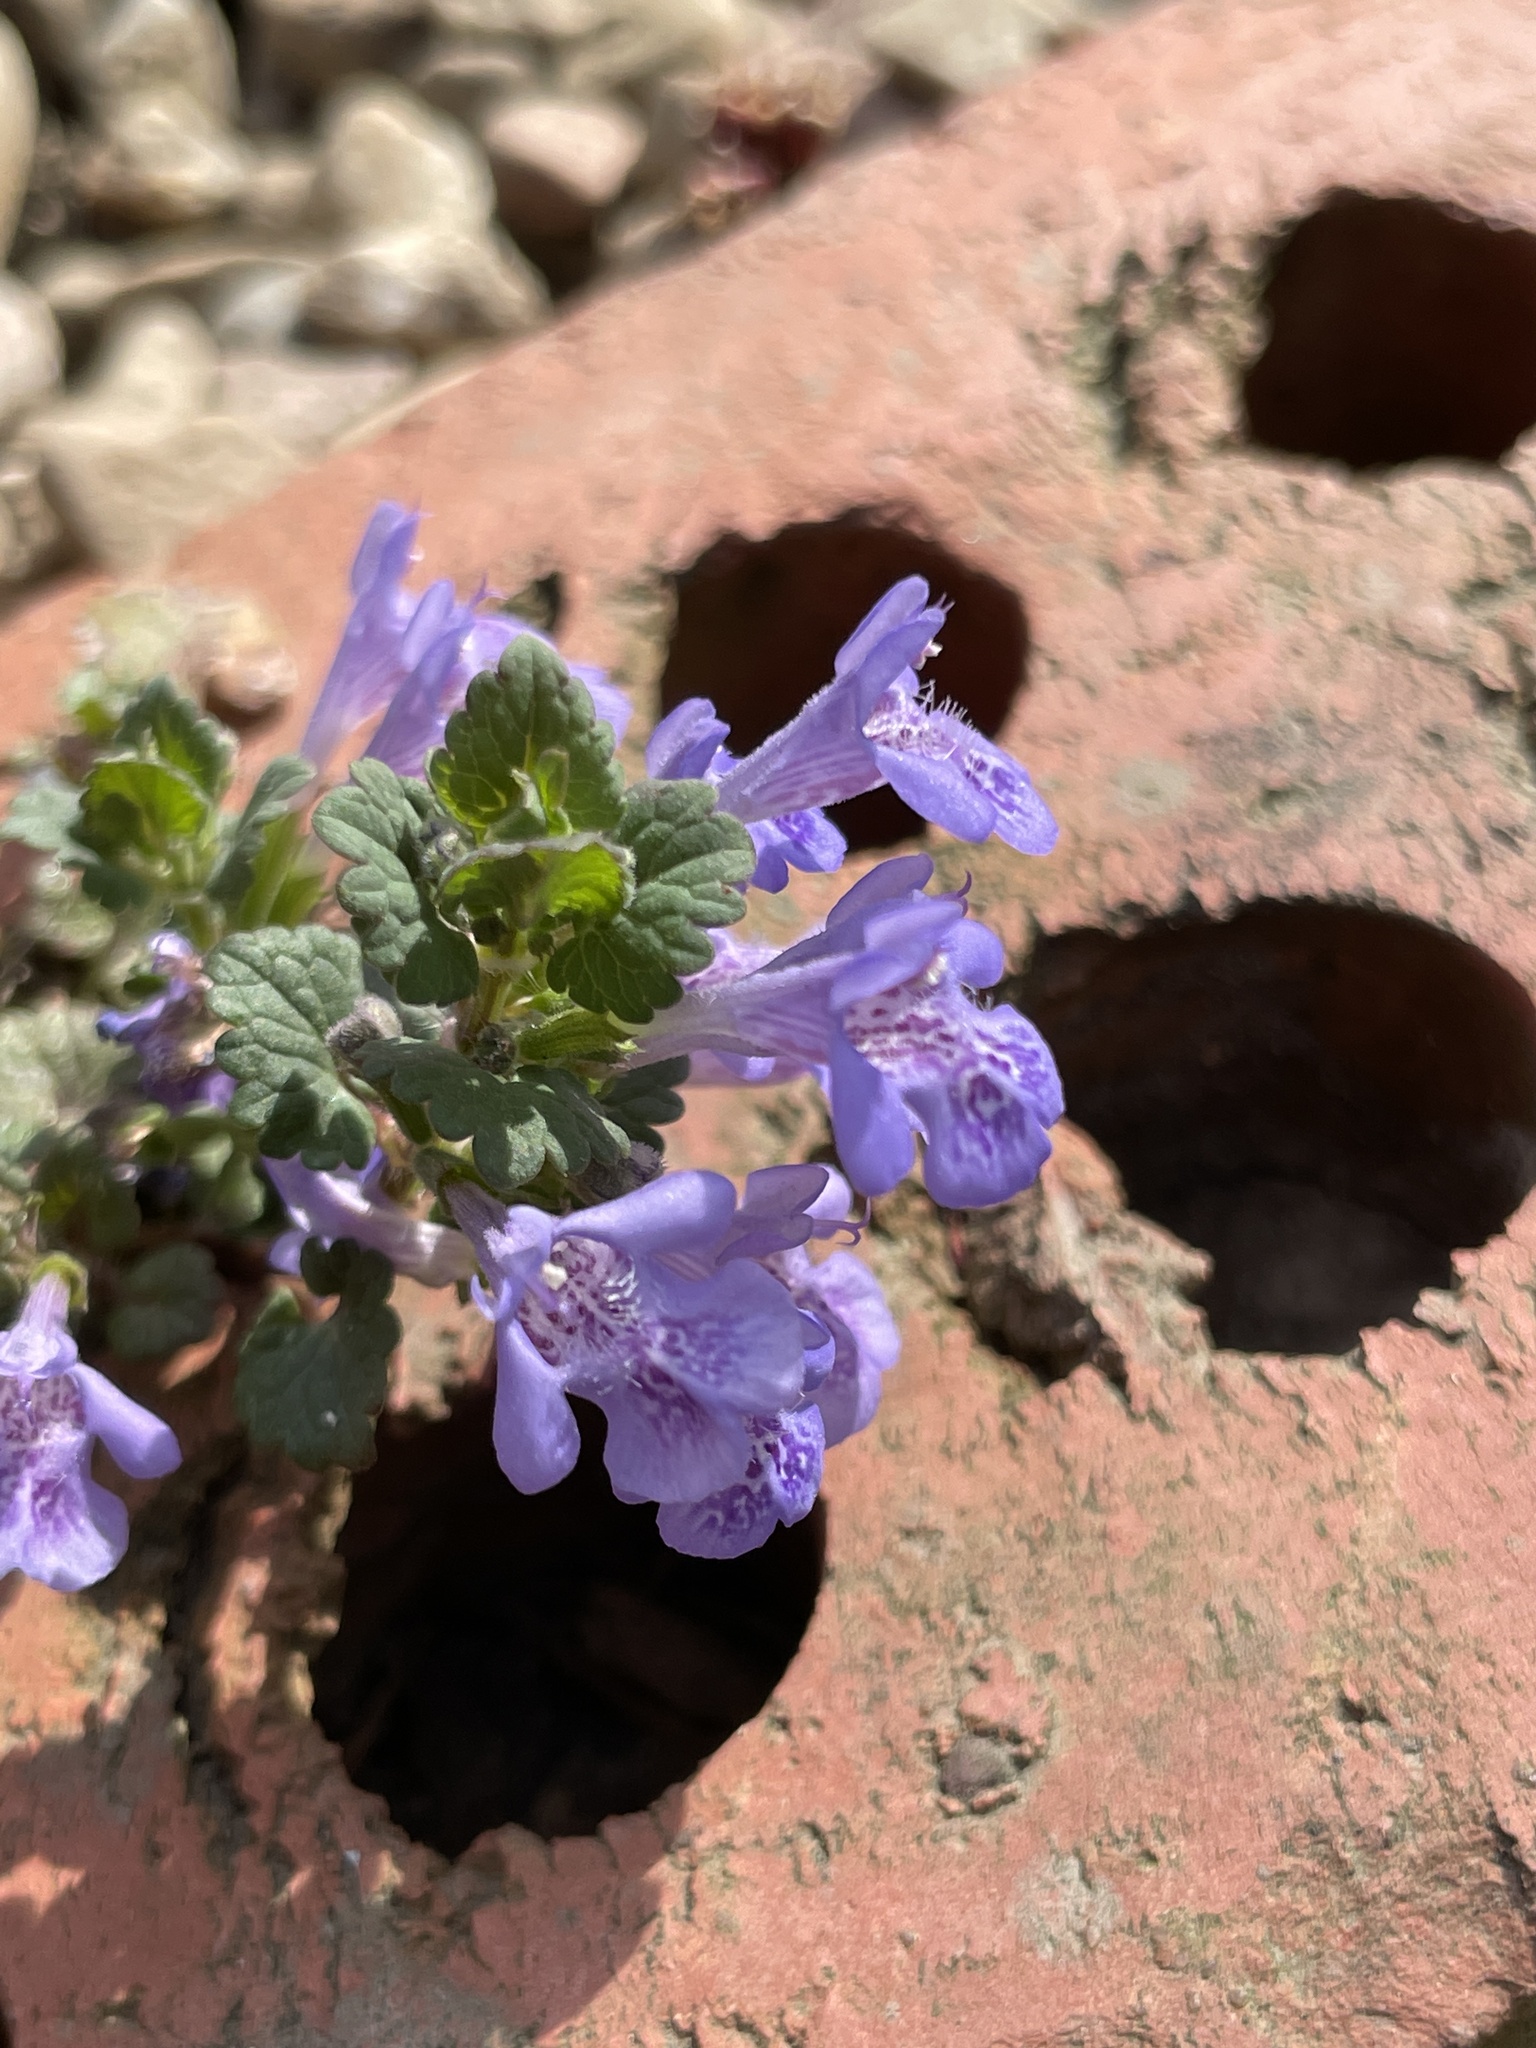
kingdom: Plantae
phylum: Tracheophyta
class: Magnoliopsida
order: Lamiales
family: Lamiaceae
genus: Glechoma
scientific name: Glechoma hederacea
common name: Ground ivy
